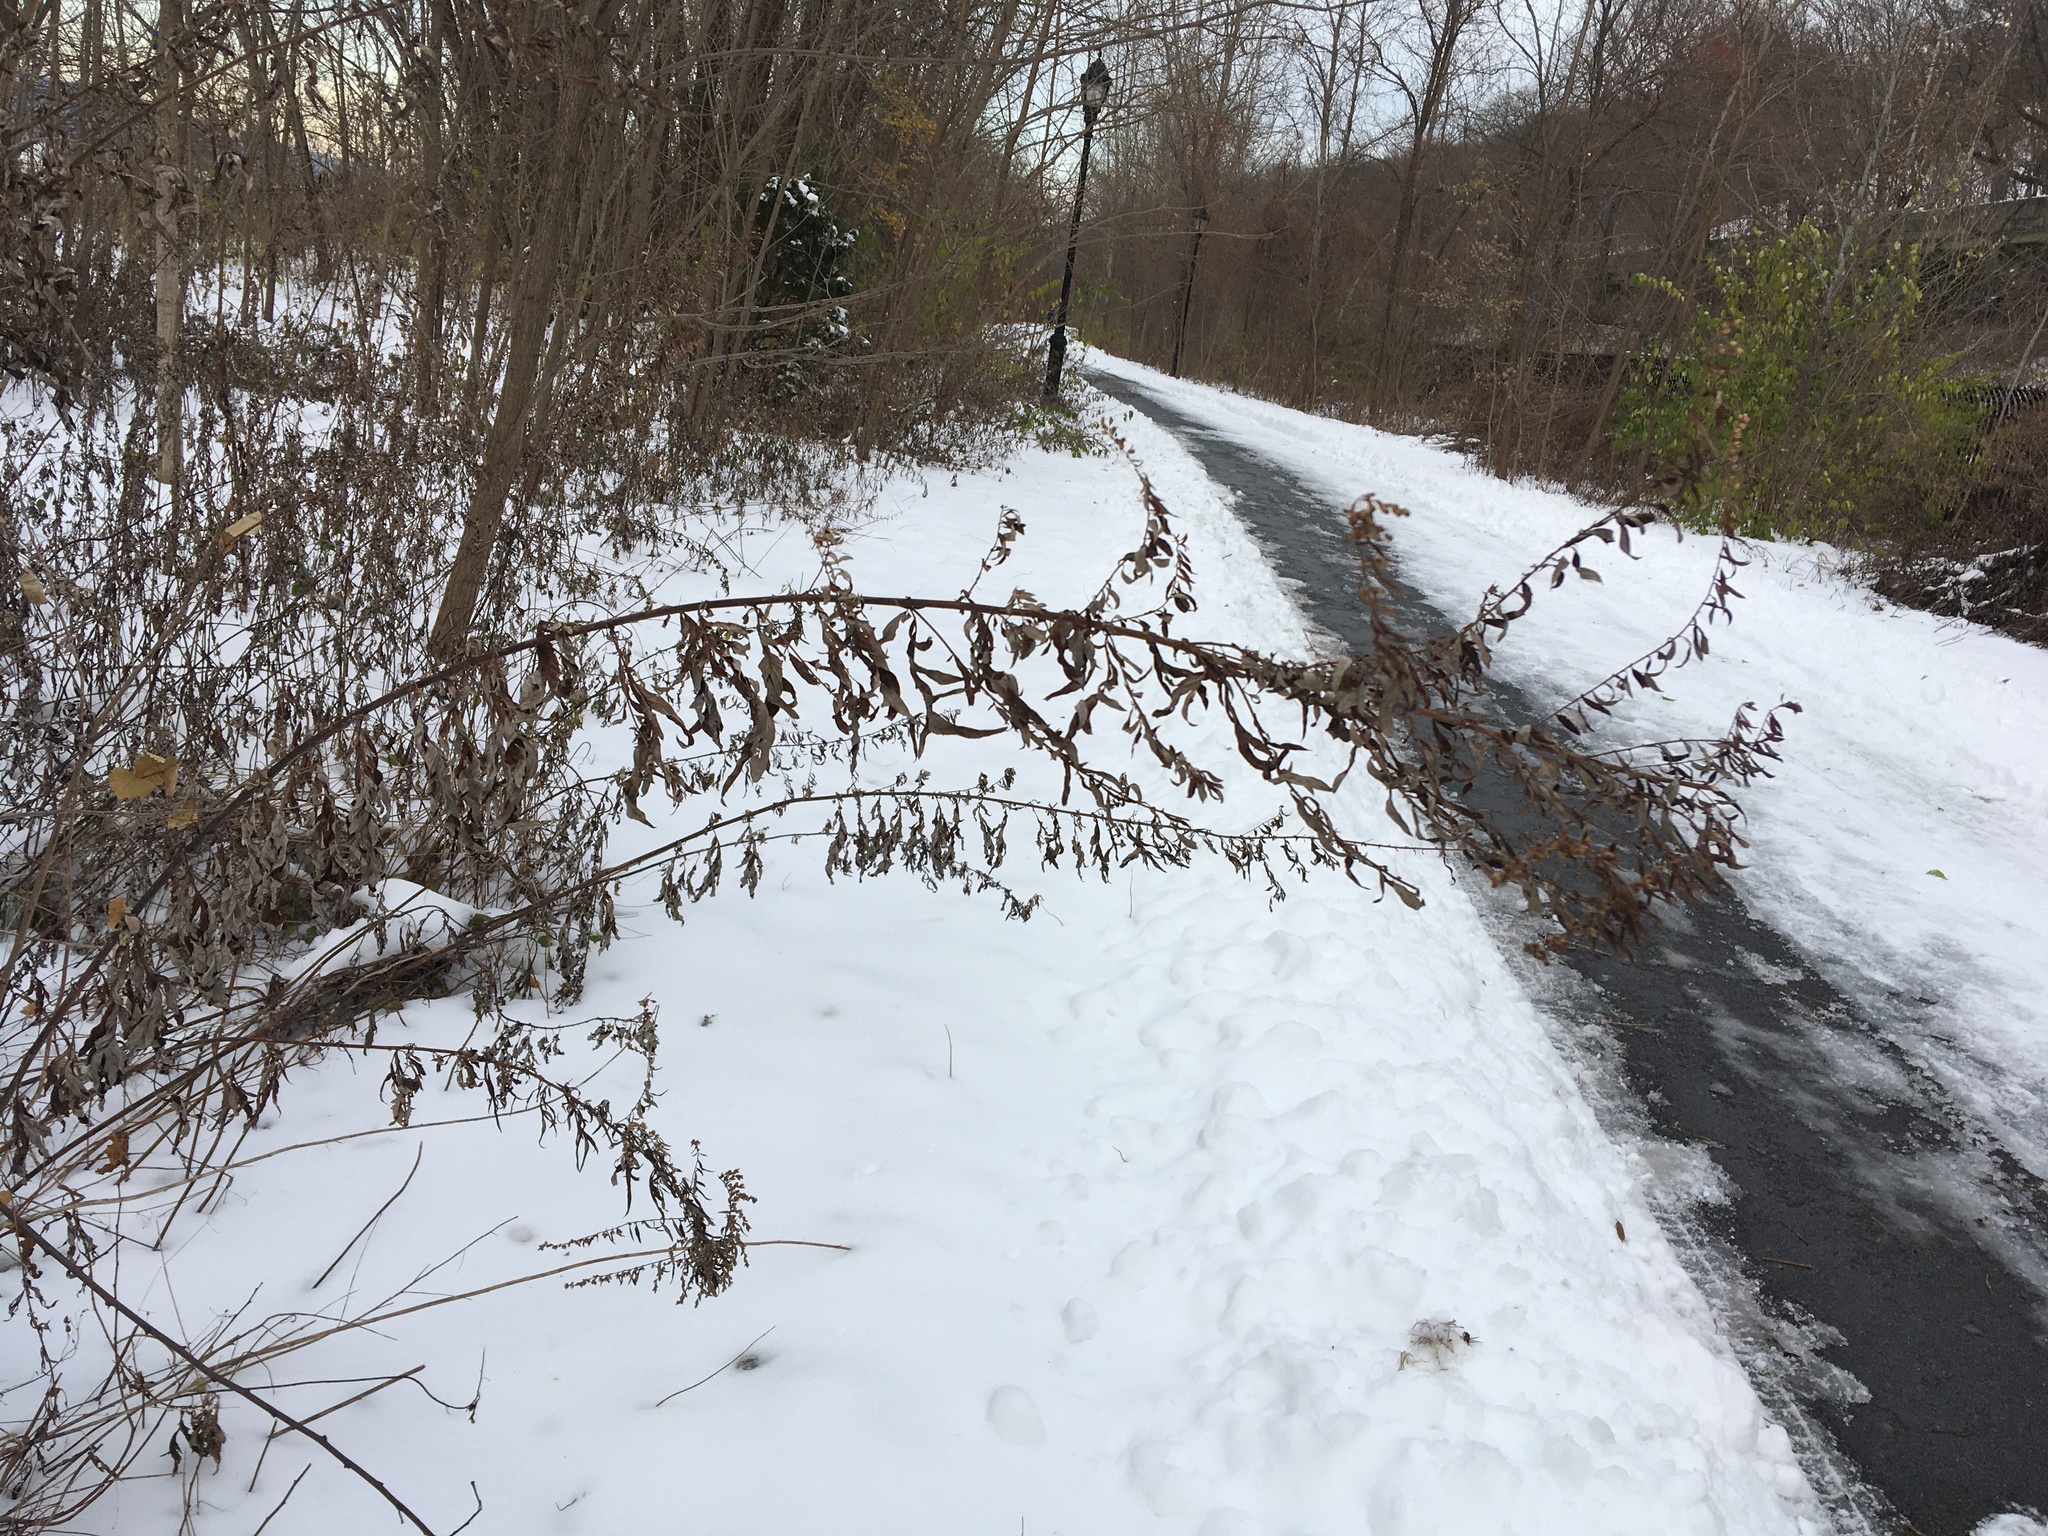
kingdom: Plantae
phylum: Tracheophyta
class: Magnoliopsida
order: Asterales
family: Asteraceae
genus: Artemisia
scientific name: Artemisia vulgaris
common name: Mugwort
